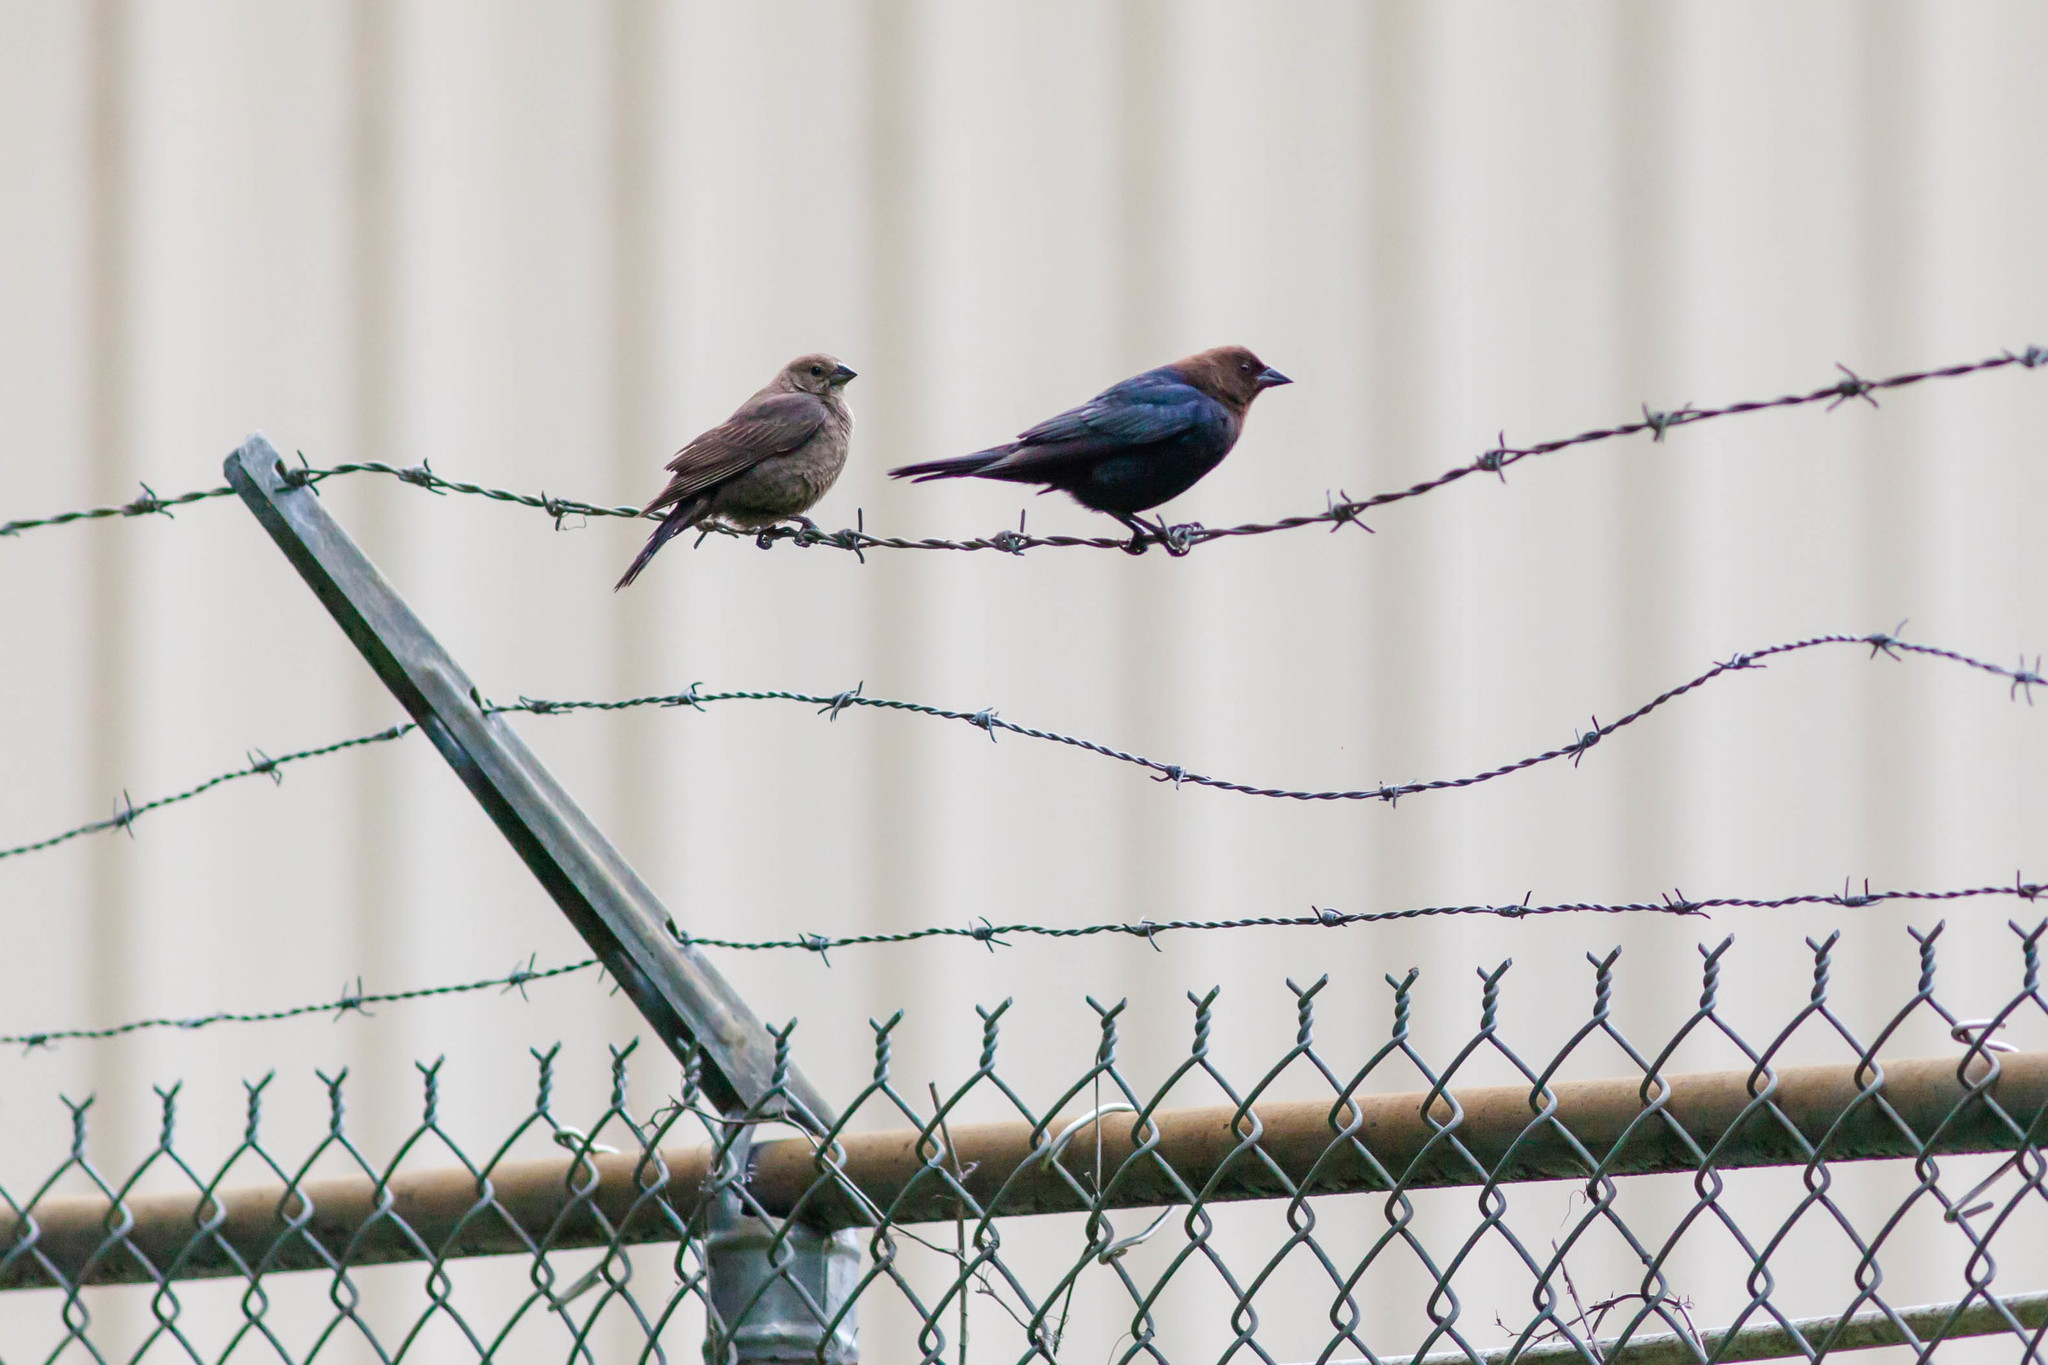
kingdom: Animalia
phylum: Chordata
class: Aves
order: Passeriformes
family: Icteridae
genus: Molothrus
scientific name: Molothrus ater
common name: Brown-headed cowbird
